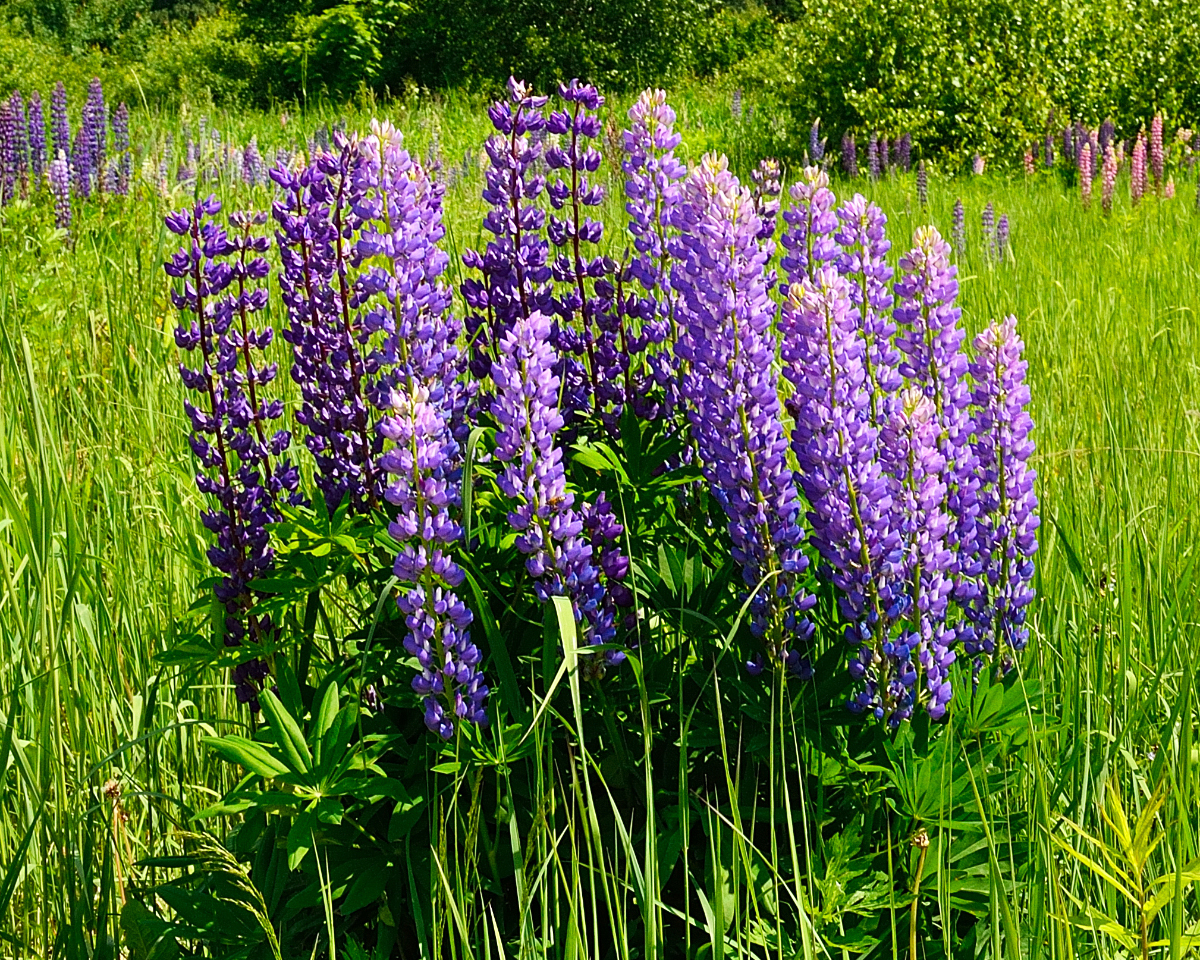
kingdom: Plantae
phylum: Tracheophyta
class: Magnoliopsida
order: Fabales
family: Fabaceae
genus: Lupinus
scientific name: Lupinus polyphyllus
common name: Garden lupin
